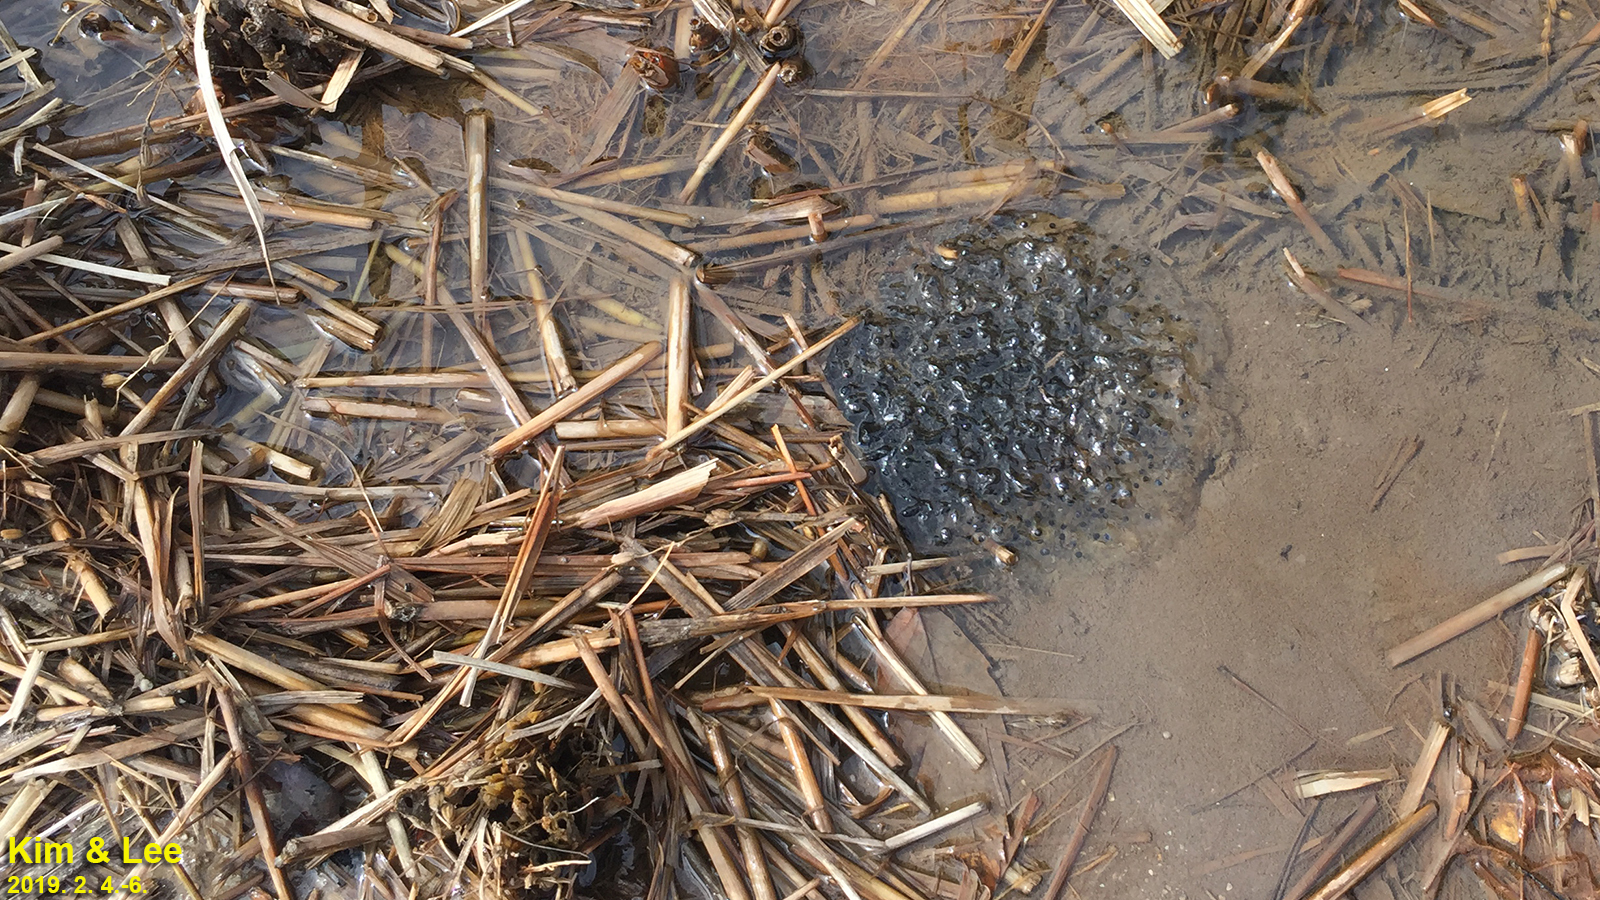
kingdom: Animalia
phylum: Chordata
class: Amphibia
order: Anura
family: Ranidae
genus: Rana
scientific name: Rana uenoi
